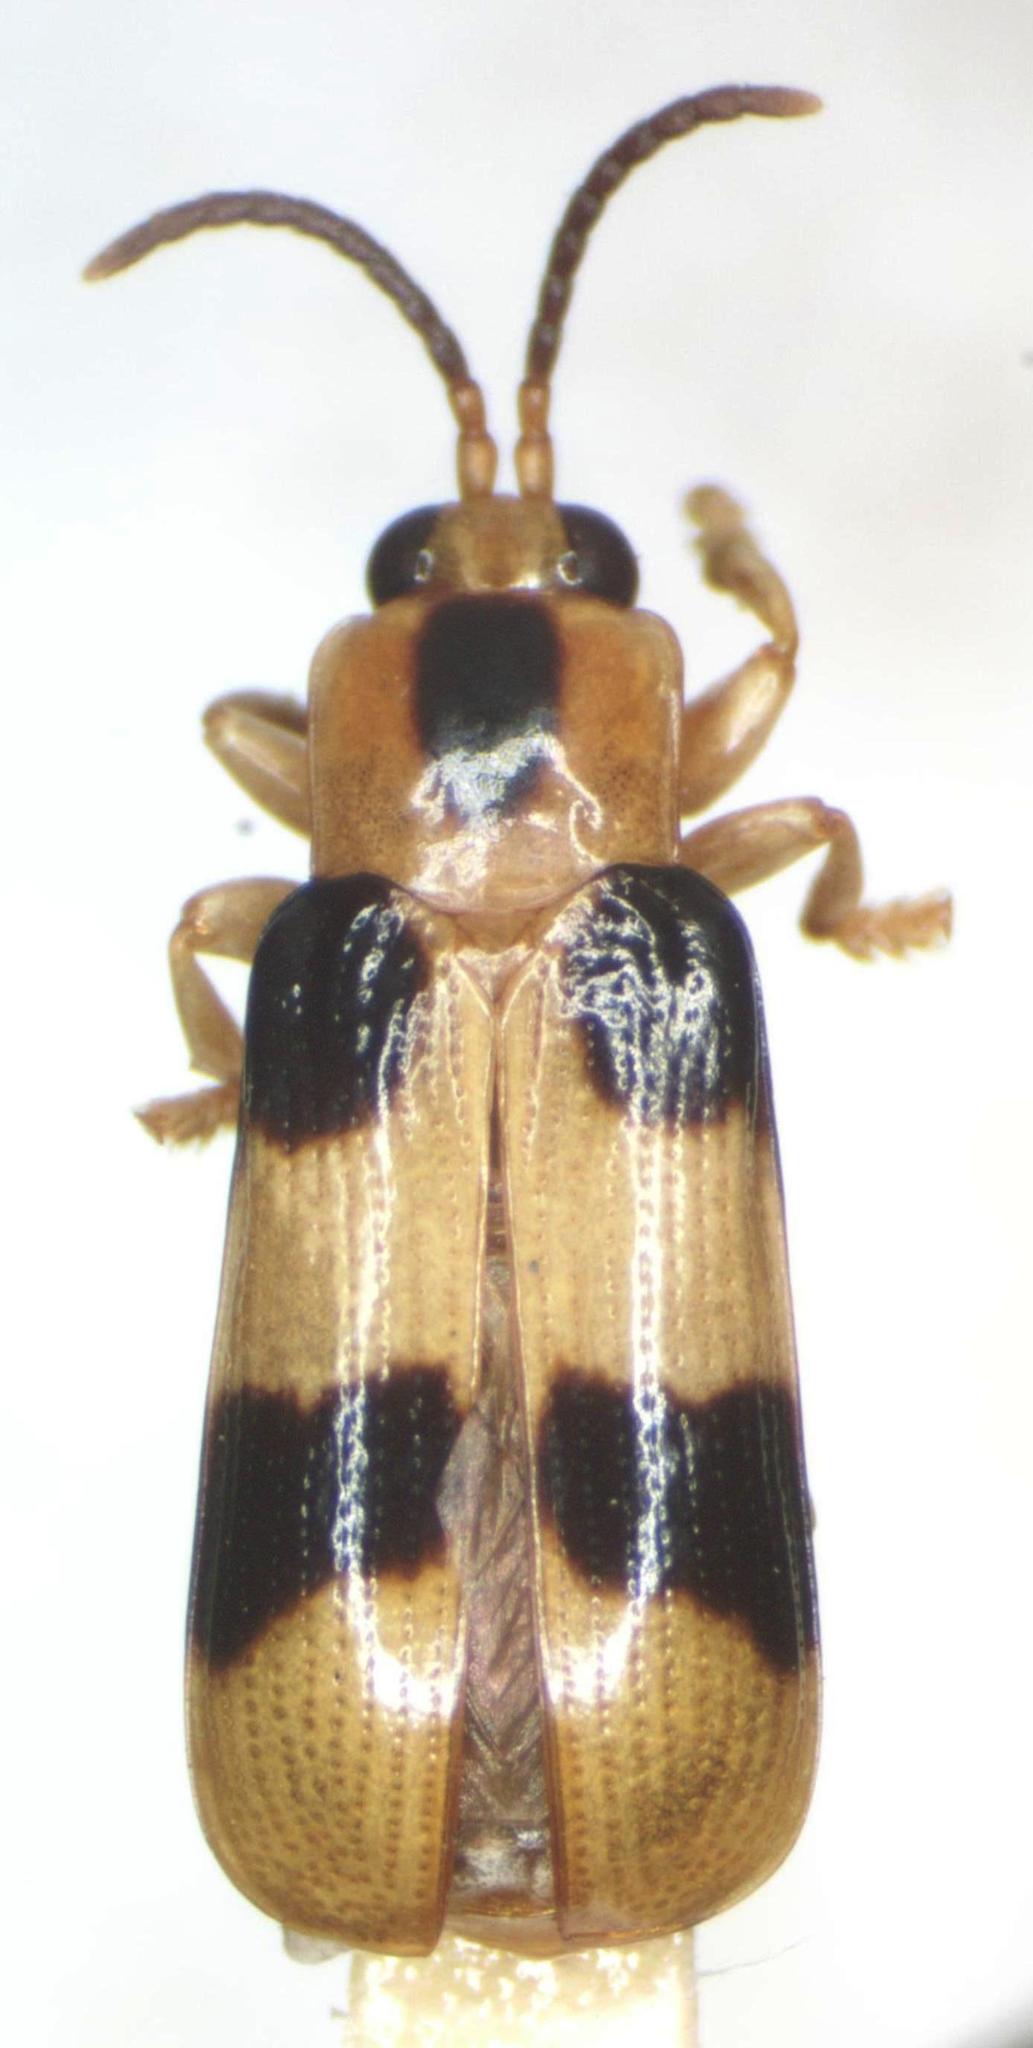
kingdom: Animalia
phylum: Arthropoda
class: Insecta
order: Coleoptera
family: Chrysomelidae
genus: Cephaloleia
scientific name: Cephaloleia reventazonica
